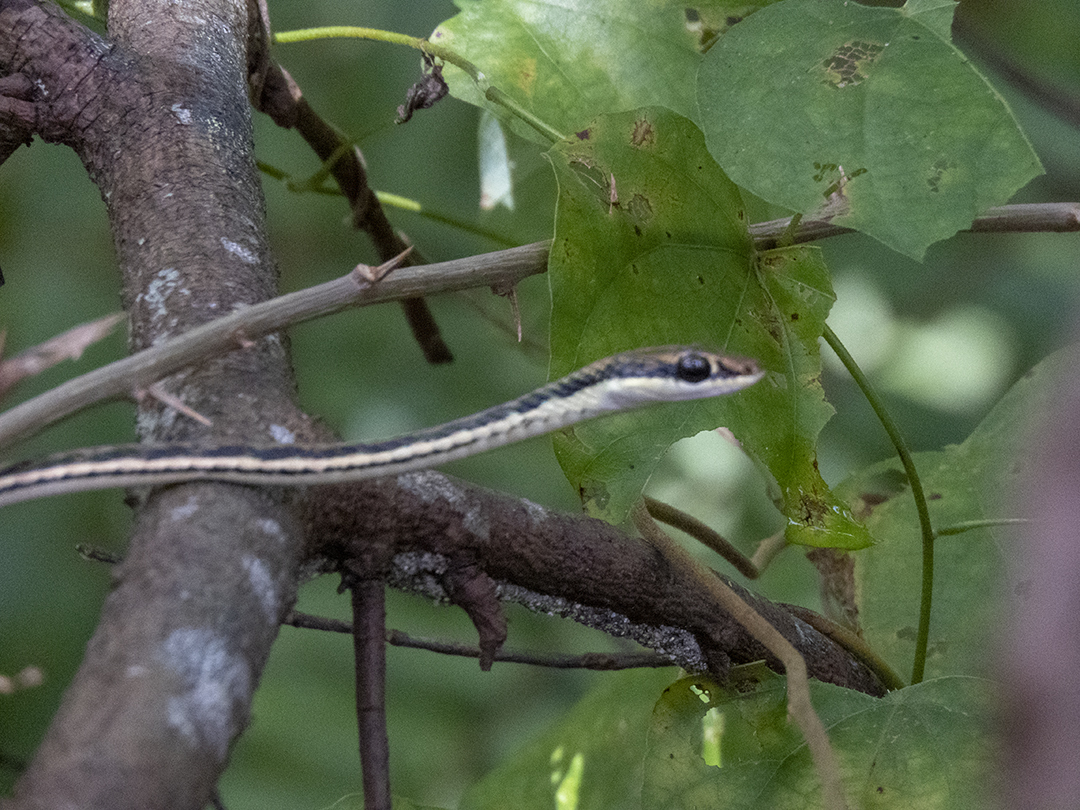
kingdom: Animalia
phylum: Chordata
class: Squamata
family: Colubridae
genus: Dendrelaphis
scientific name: Dendrelaphis pictus
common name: Indonesian bronze-back
